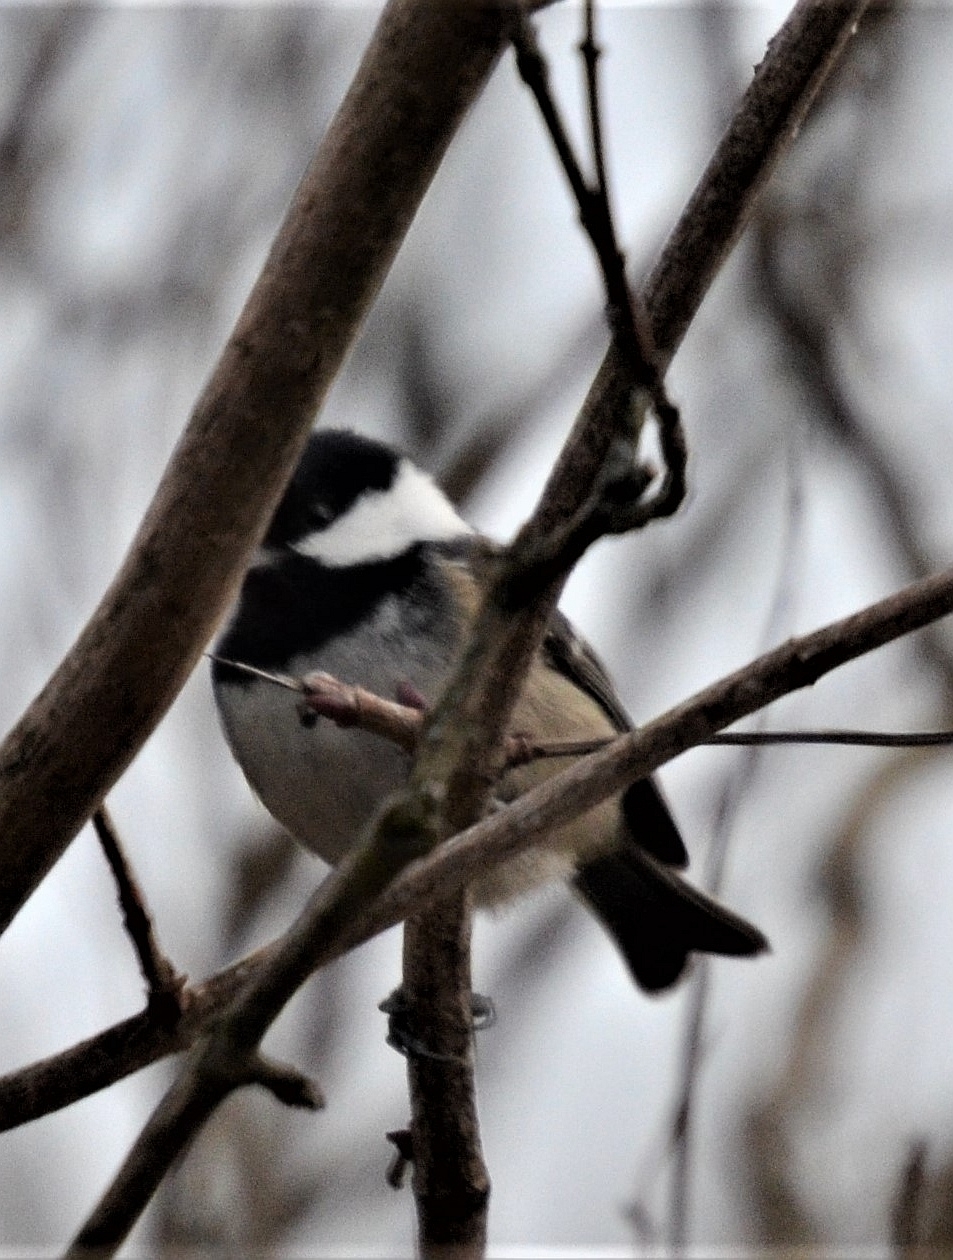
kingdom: Animalia
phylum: Chordata
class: Aves
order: Passeriformes
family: Paridae
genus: Periparus
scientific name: Periparus ater
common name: Coal tit
